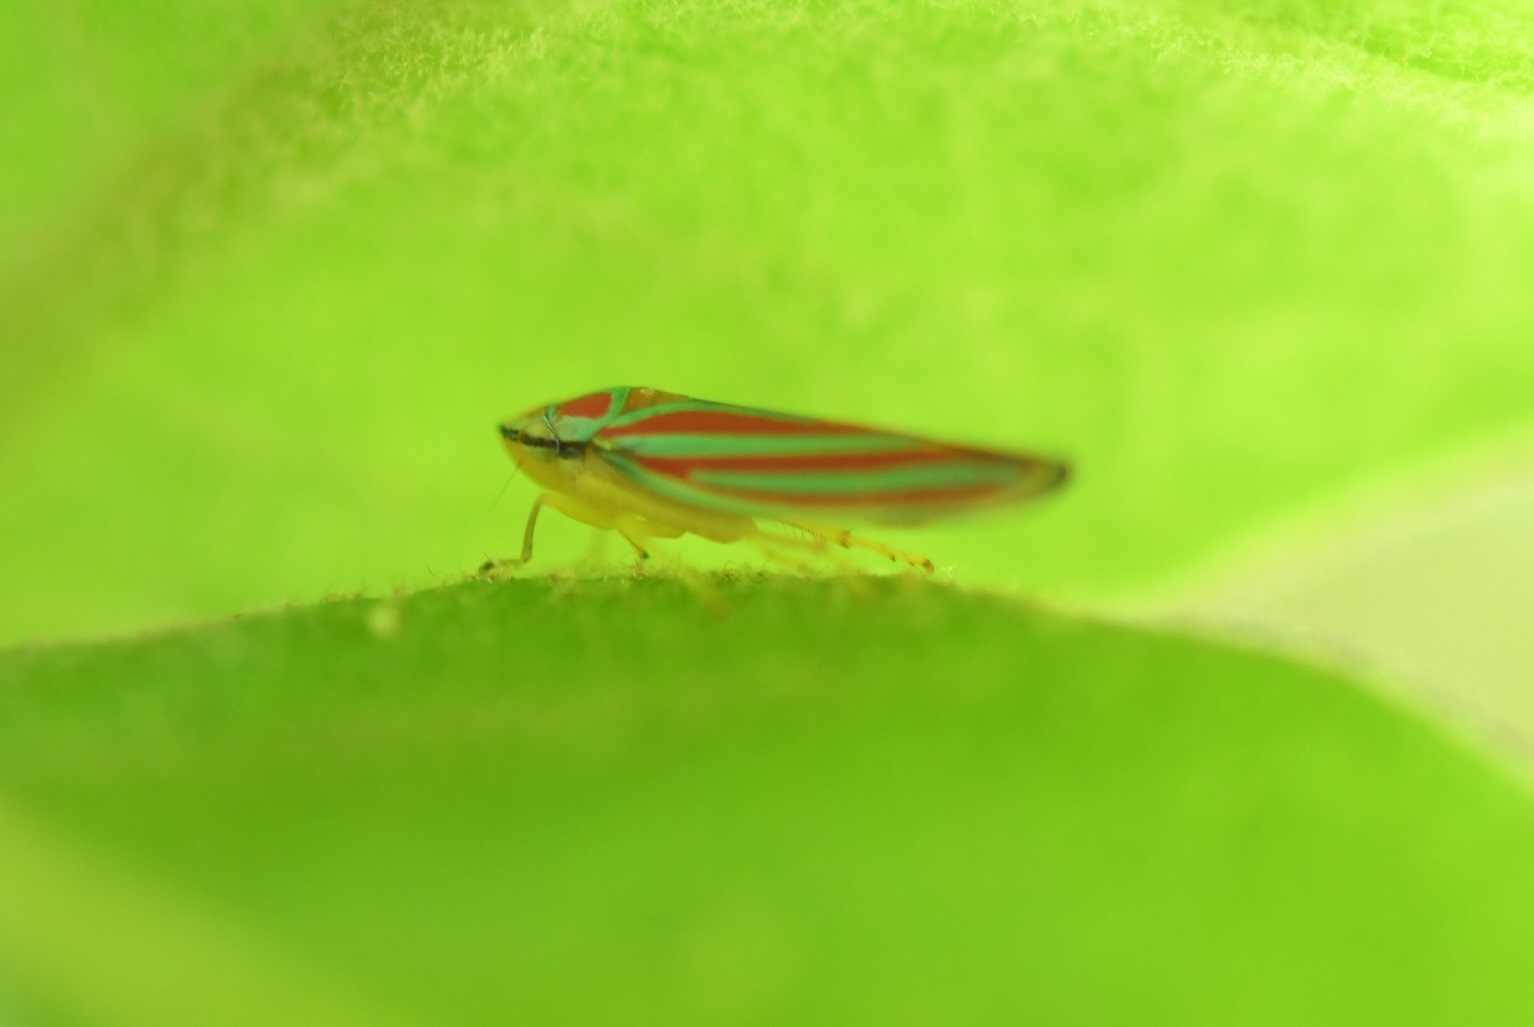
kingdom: Animalia
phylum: Arthropoda
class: Insecta
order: Hemiptera
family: Cicadellidae
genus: Graphocephala
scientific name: Graphocephala
